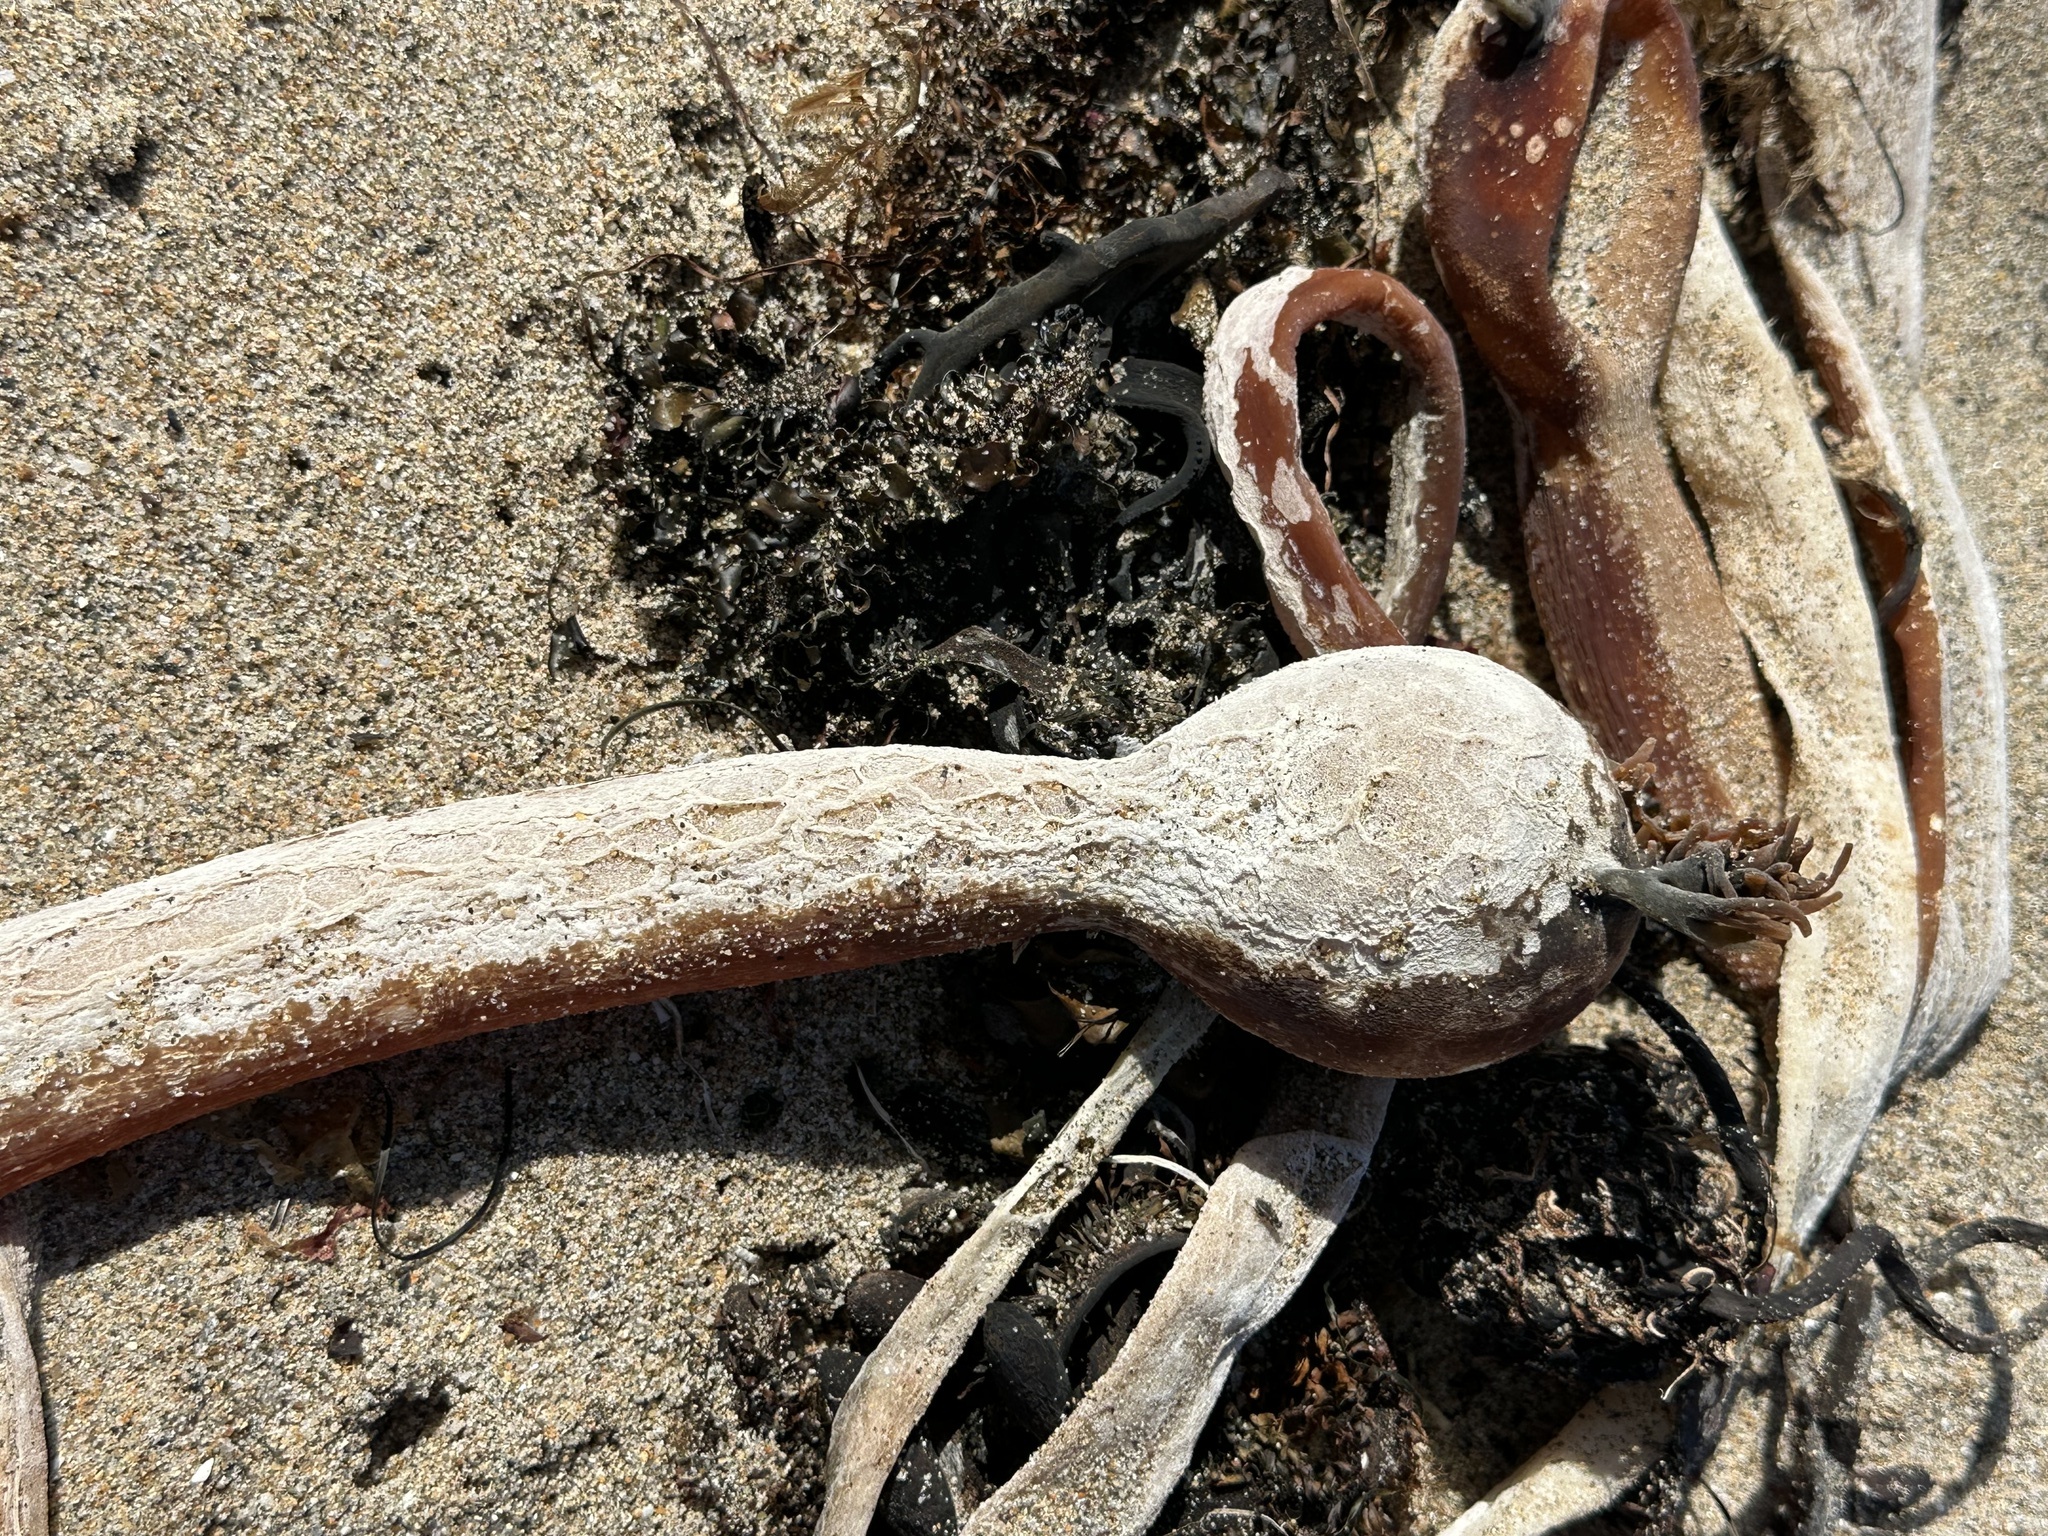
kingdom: Chromista
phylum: Ochrophyta
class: Phaeophyceae
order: Laminariales
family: Laminariaceae
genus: Nereocystis
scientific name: Nereocystis luetkeana
